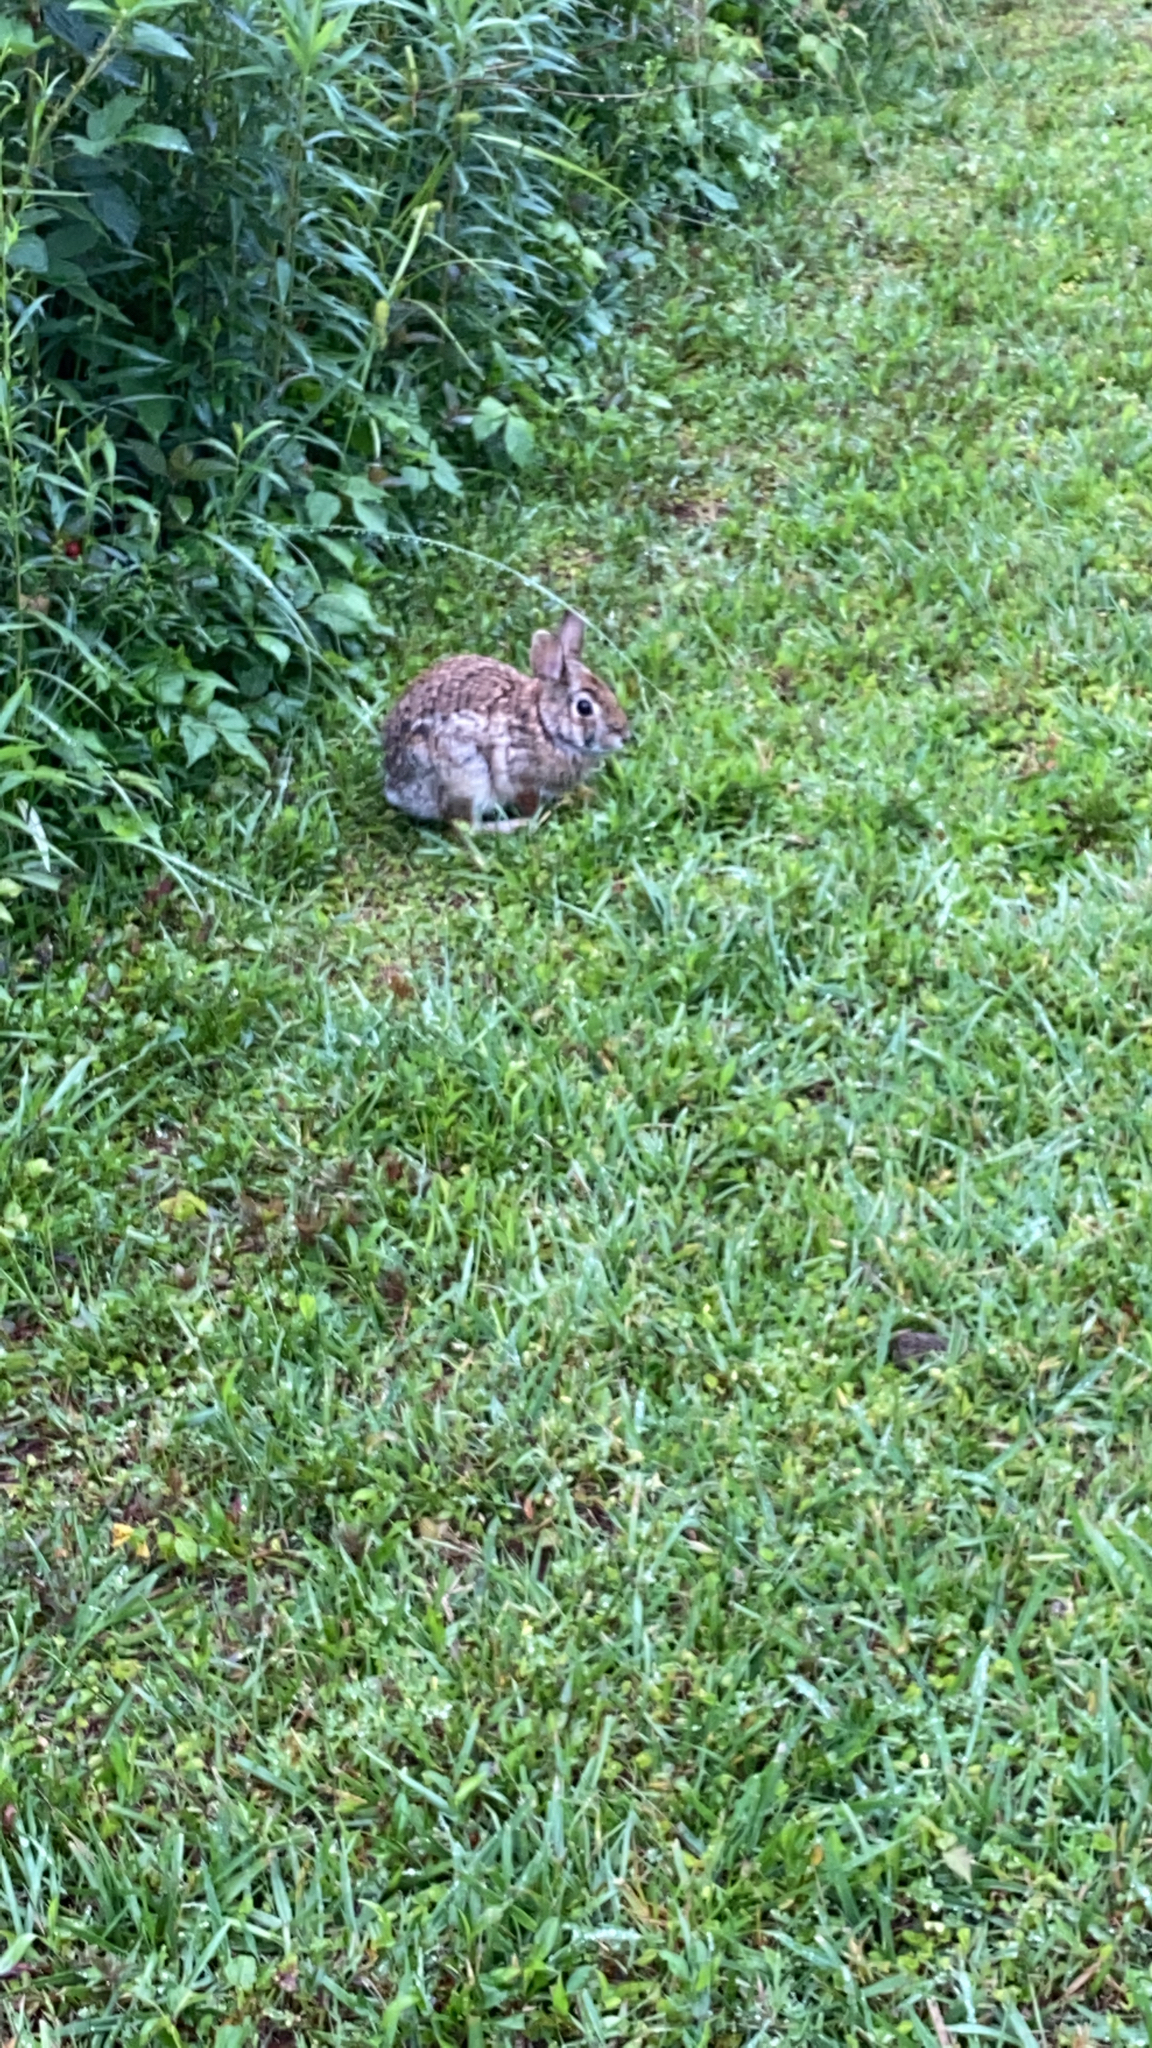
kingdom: Animalia
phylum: Chordata
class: Mammalia
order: Lagomorpha
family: Leporidae
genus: Sylvilagus
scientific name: Sylvilagus floridanus
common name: Eastern cottontail
